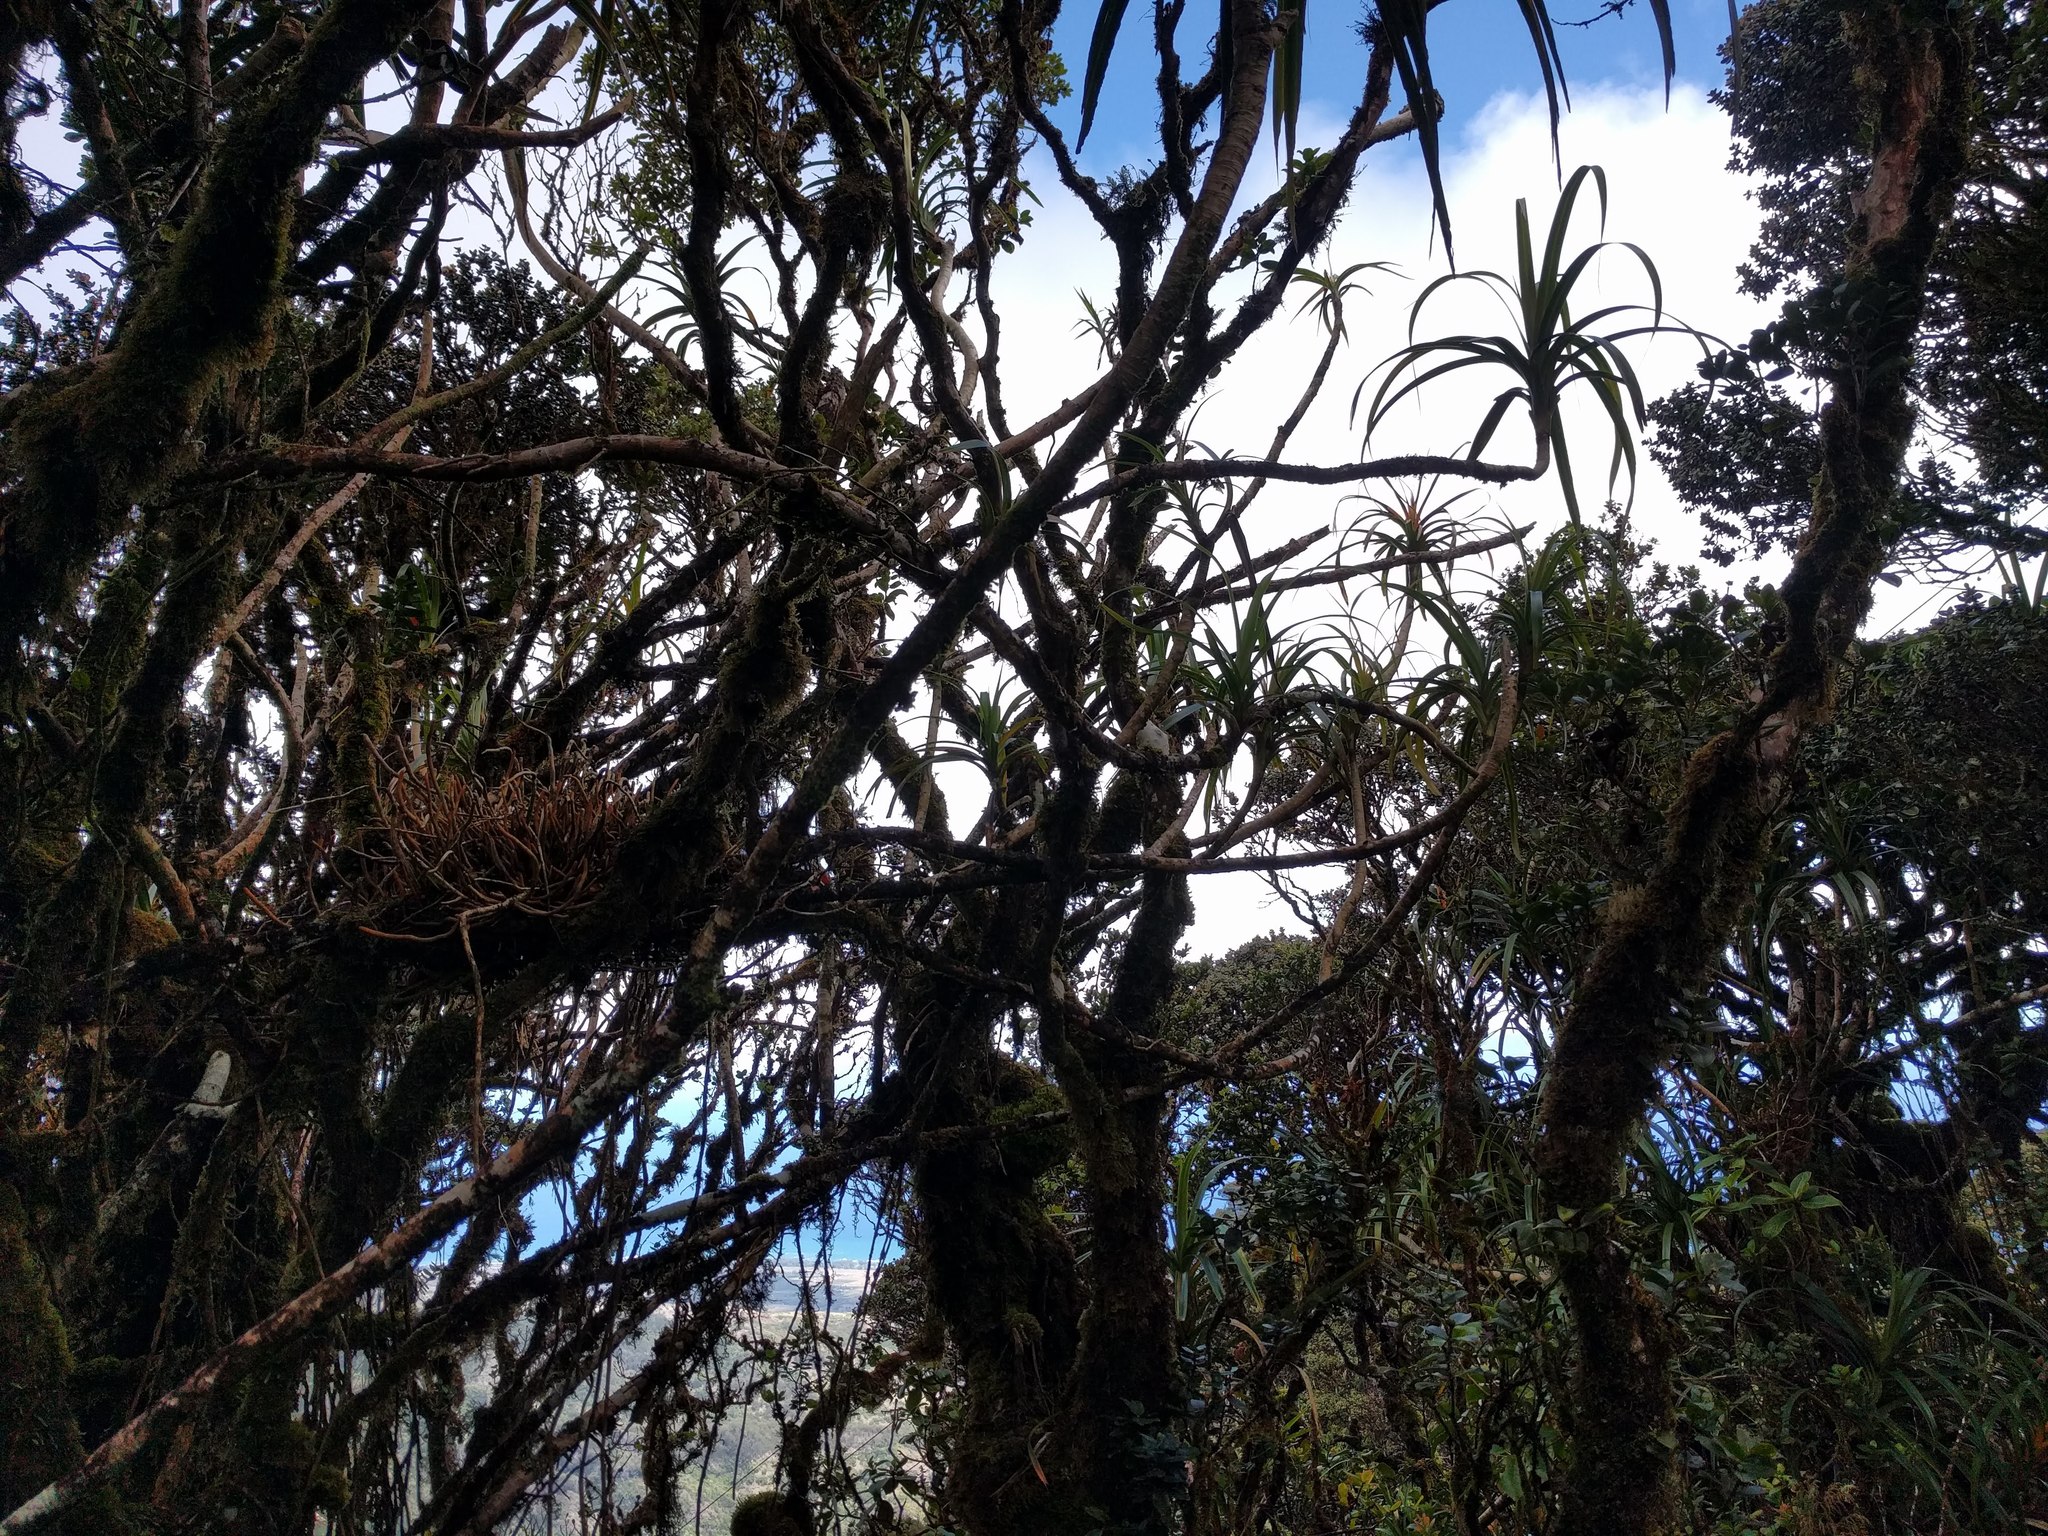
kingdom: Plantae
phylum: Tracheophyta
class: Liliopsida
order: Pandanales
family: Pandanaceae
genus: Freycinetia
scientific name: Freycinetia arborea
